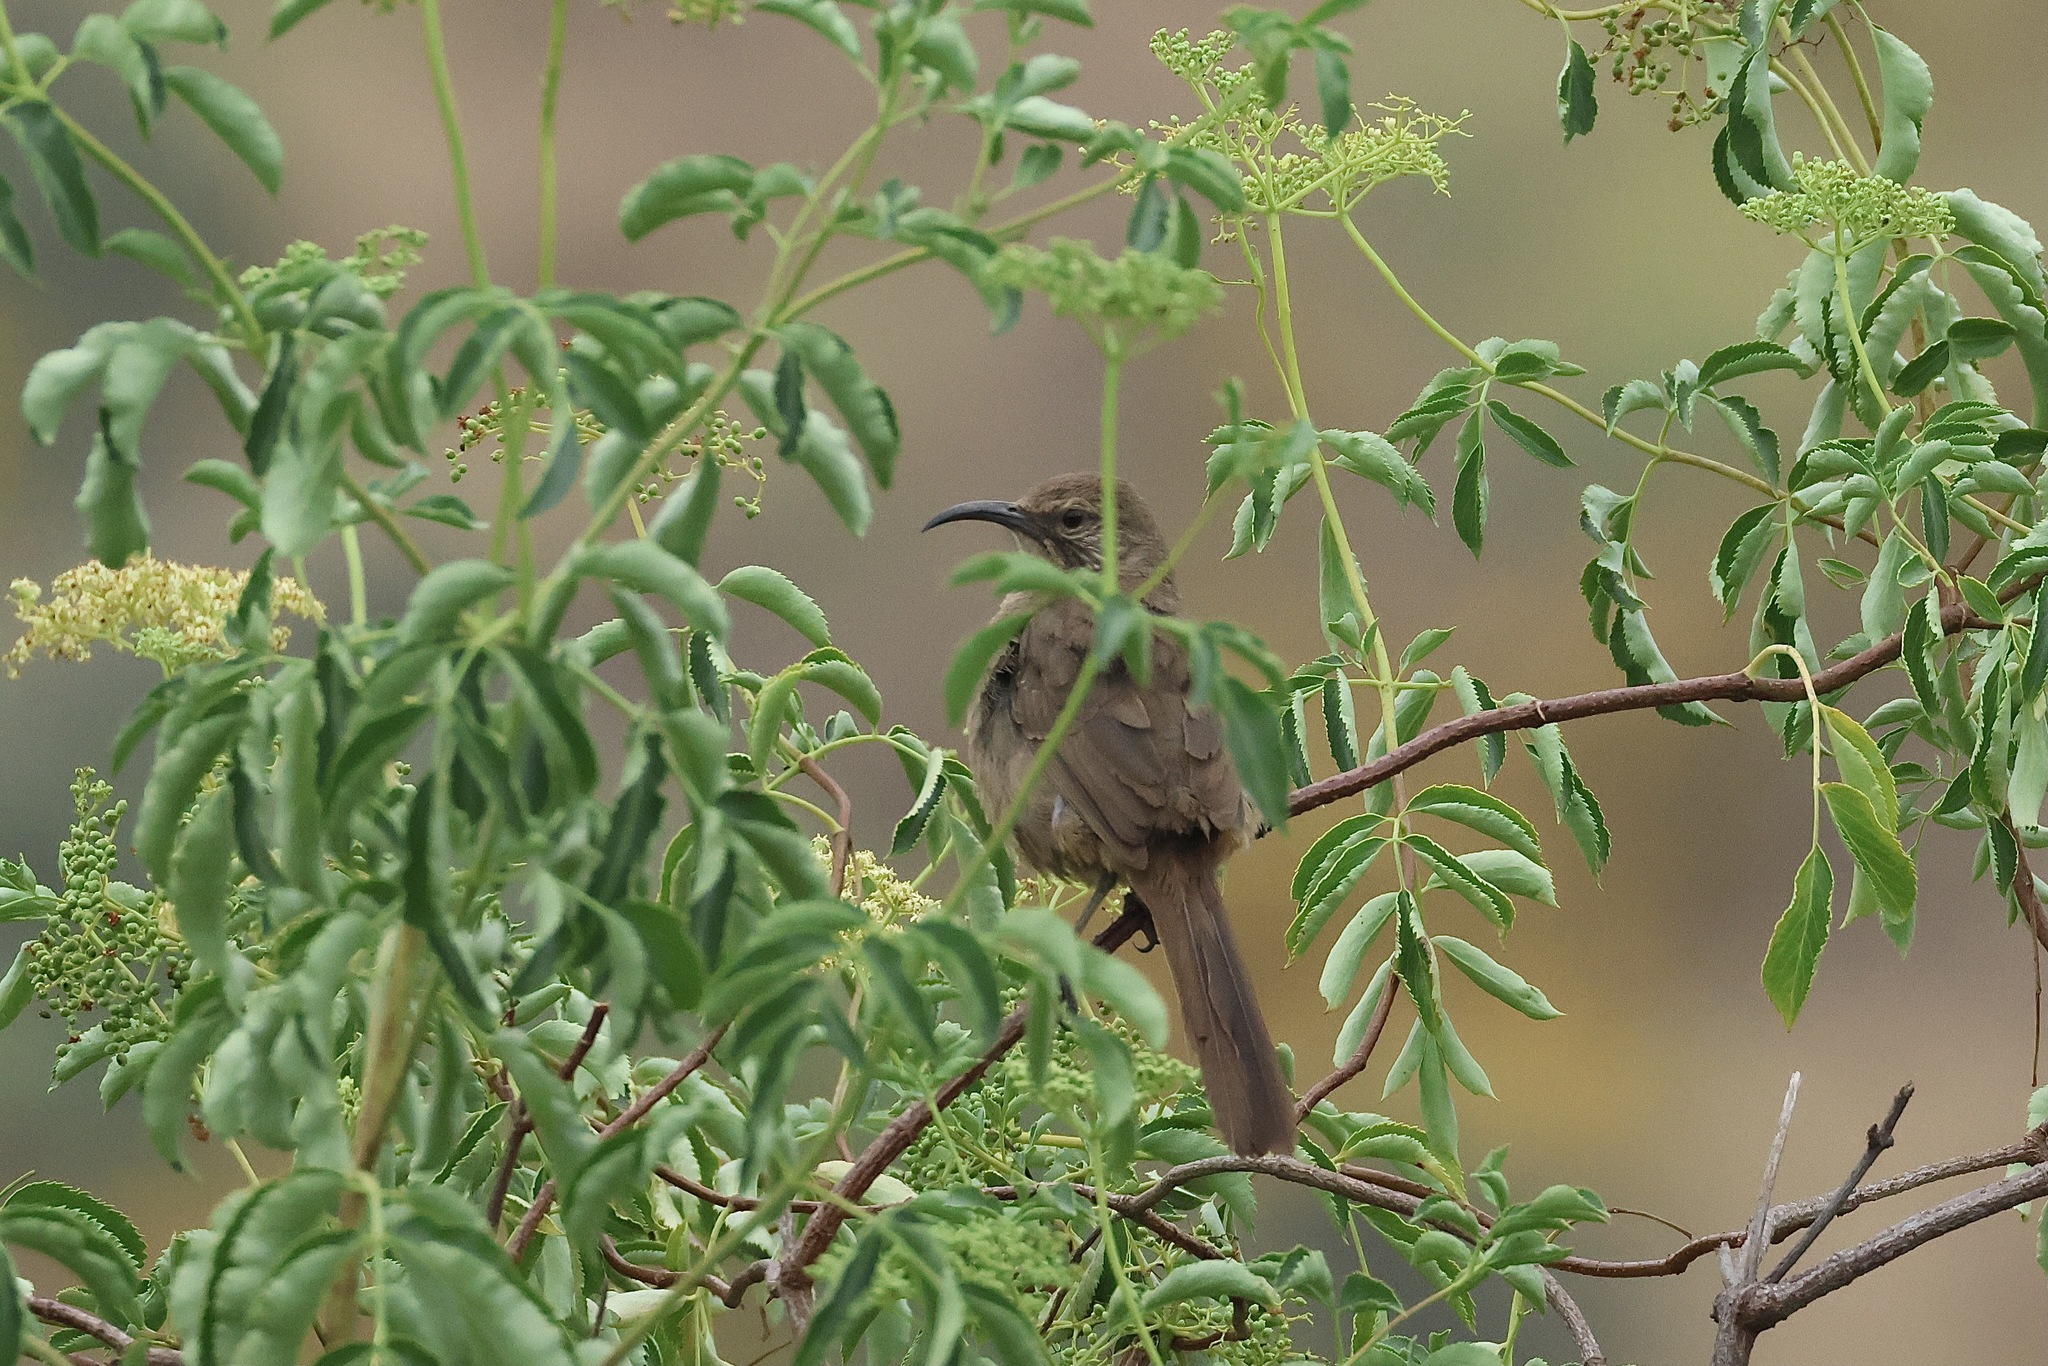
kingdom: Animalia
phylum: Chordata
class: Aves
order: Passeriformes
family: Mimidae
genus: Toxostoma
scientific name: Toxostoma redivivum
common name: California thrasher
